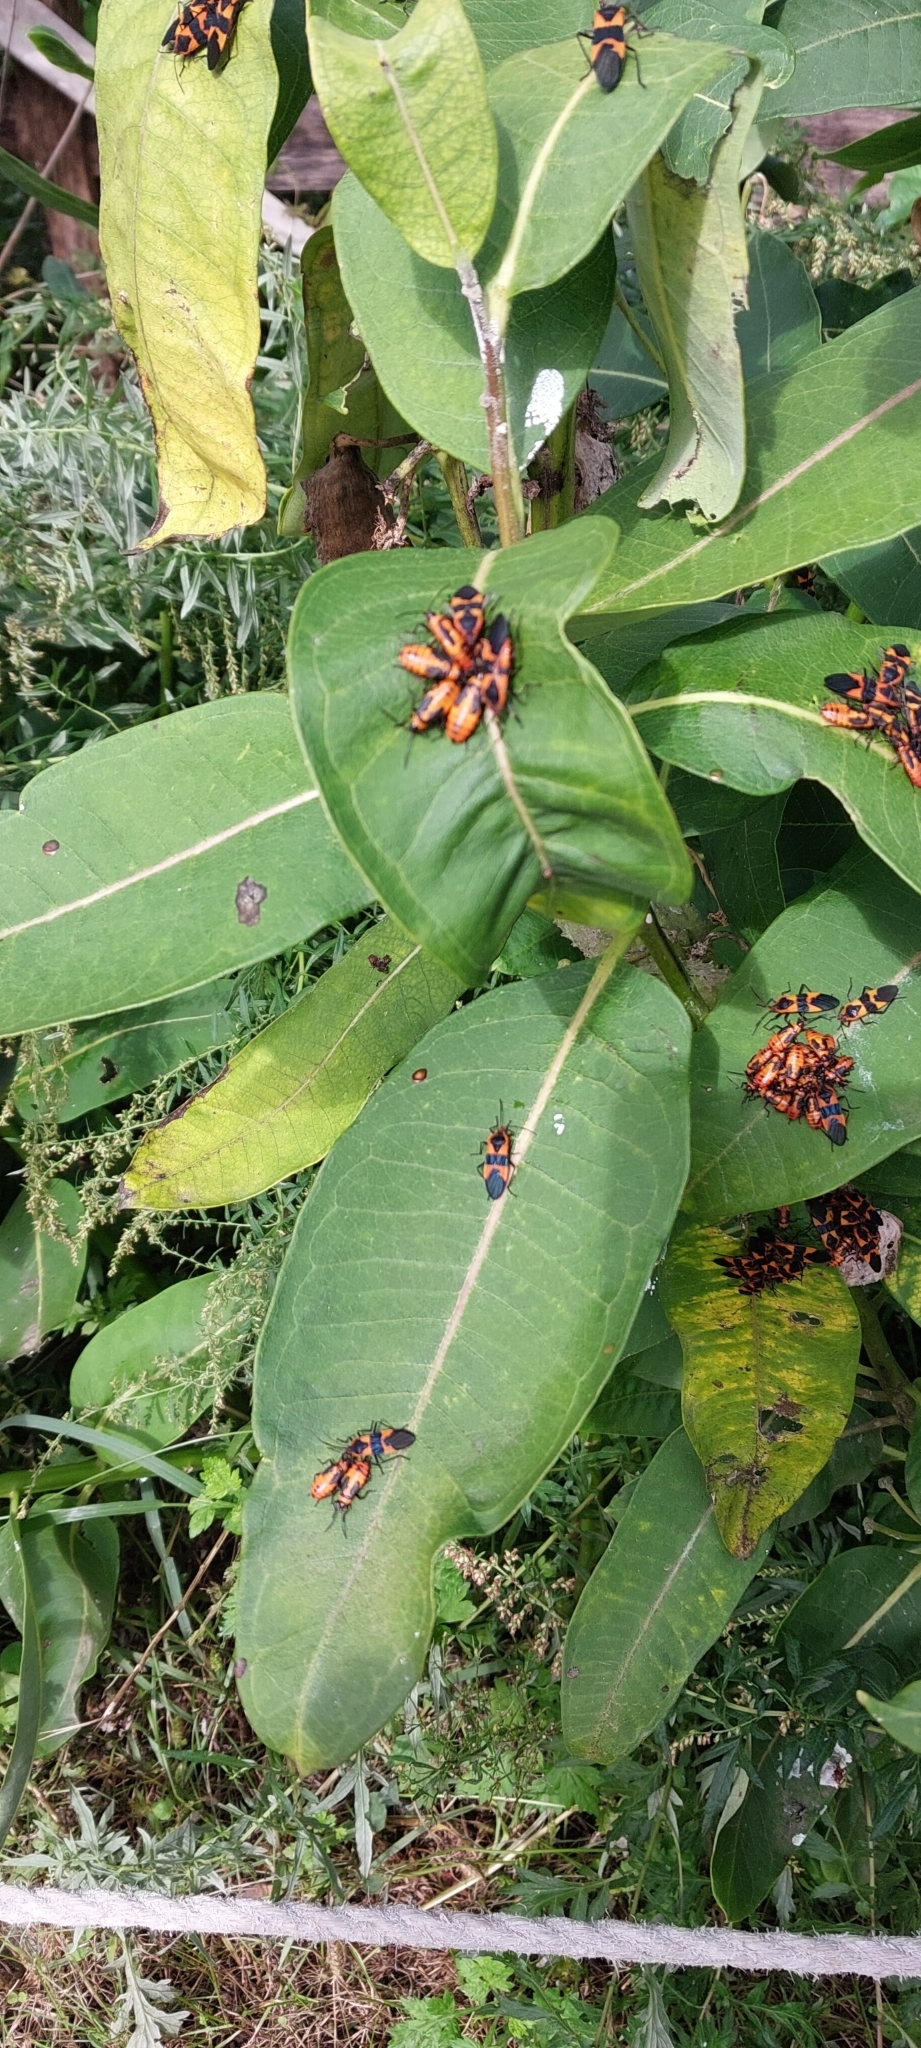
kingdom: Animalia
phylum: Arthropoda
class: Insecta
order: Hemiptera
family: Lygaeidae
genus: Oncopeltus
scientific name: Oncopeltus fasciatus
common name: Large milkweed bug
